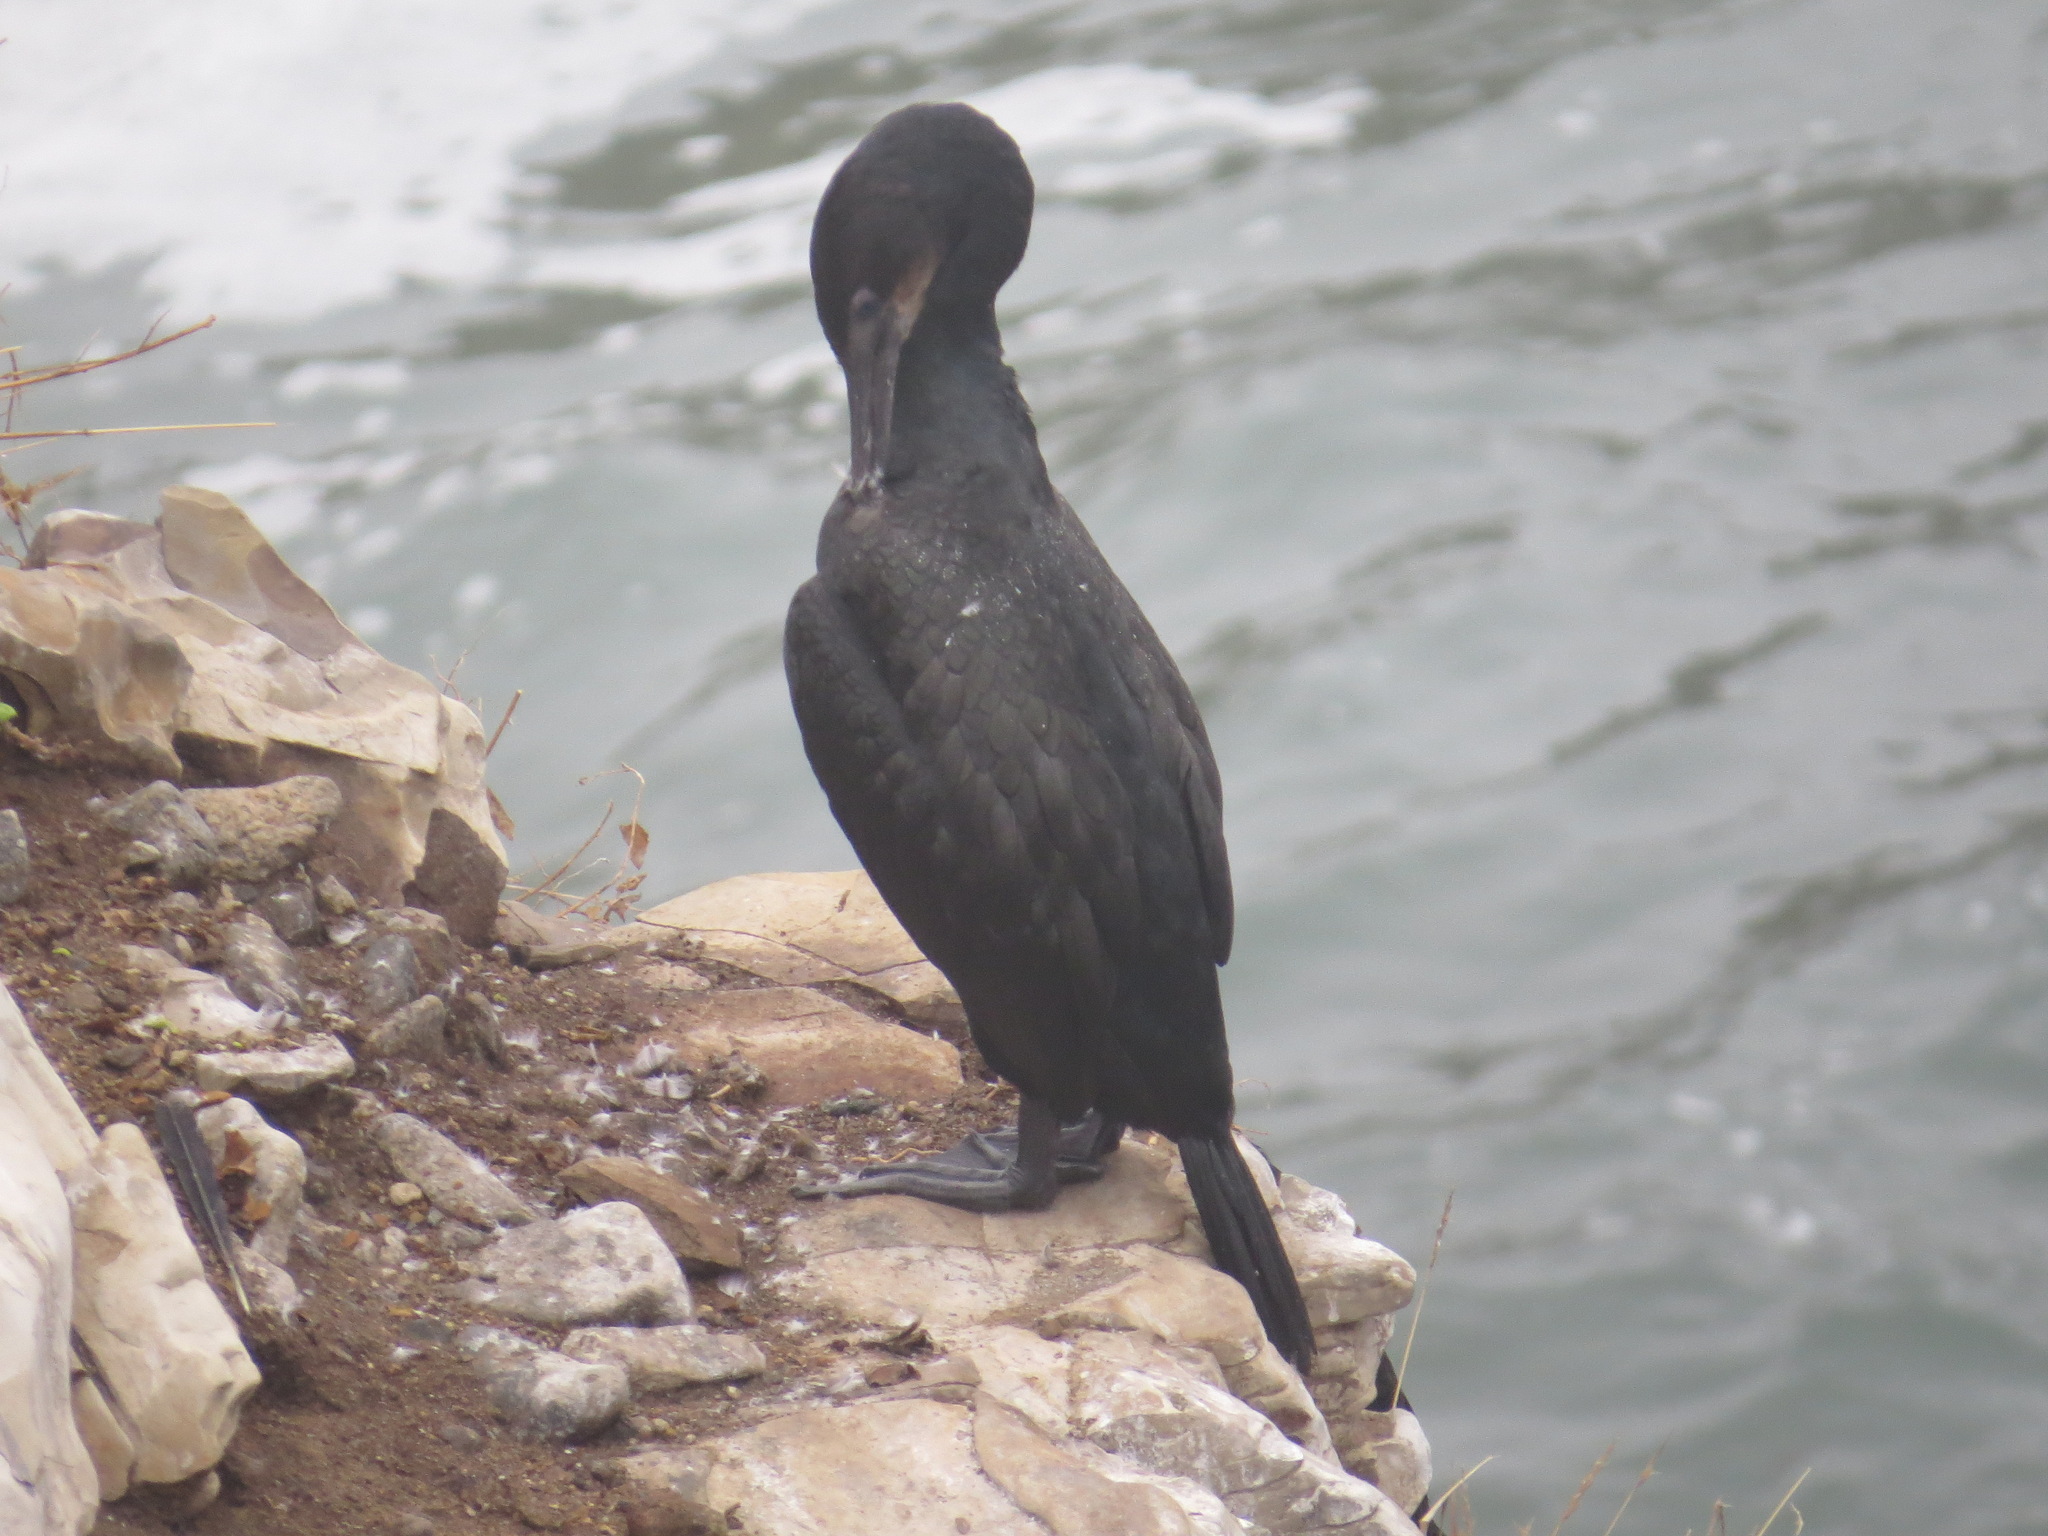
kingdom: Animalia
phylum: Chordata
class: Aves
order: Suliformes
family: Phalacrocoracidae
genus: Urile
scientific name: Urile penicillatus
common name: Brandt's cormorant
